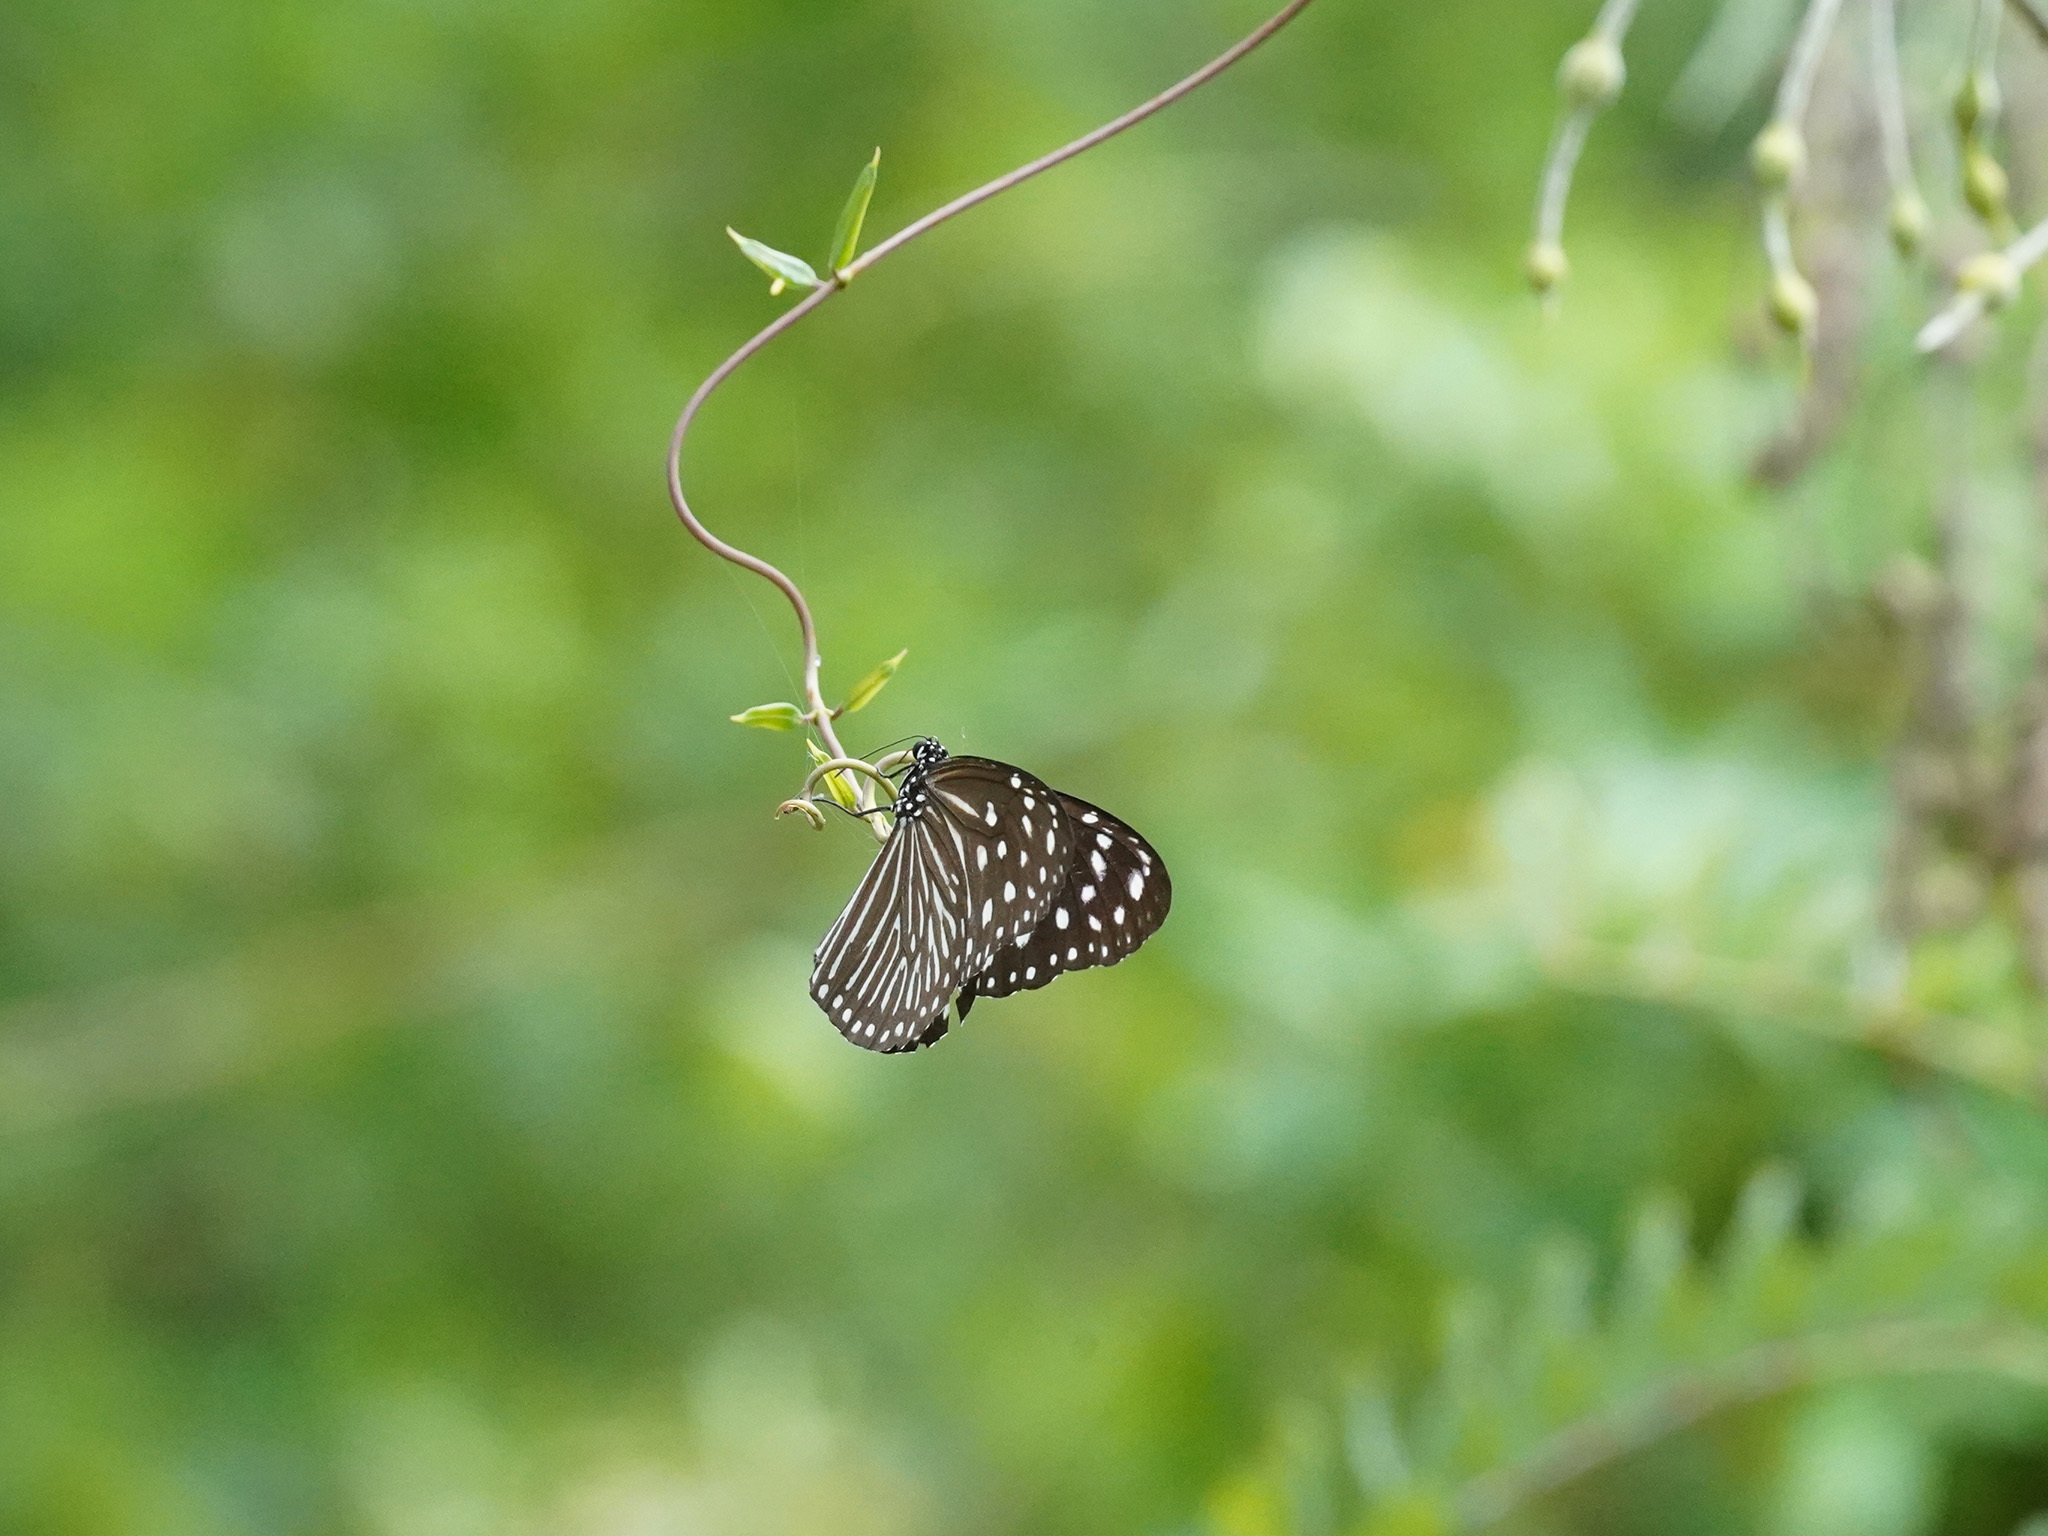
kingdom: Animalia
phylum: Arthropoda
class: Insecta
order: Lepidoptera
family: Nymphalidae
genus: Euploea
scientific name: Euploea mulciber
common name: Striped blue crow butterfly
